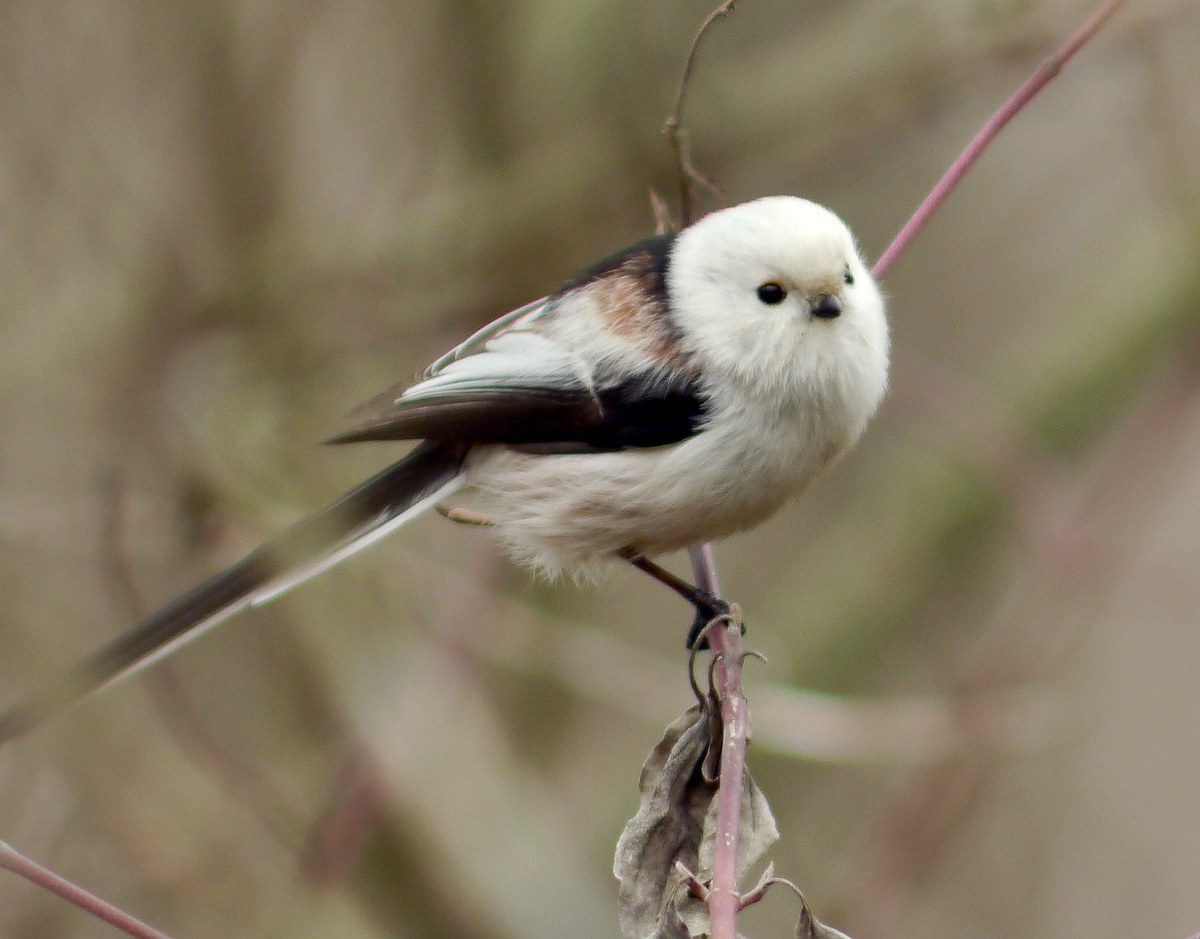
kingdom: Animalia
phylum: Chordata
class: Aves
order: Passeriformes
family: Aegithalidae
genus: Aegithalos
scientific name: Aegithalos caudatus
